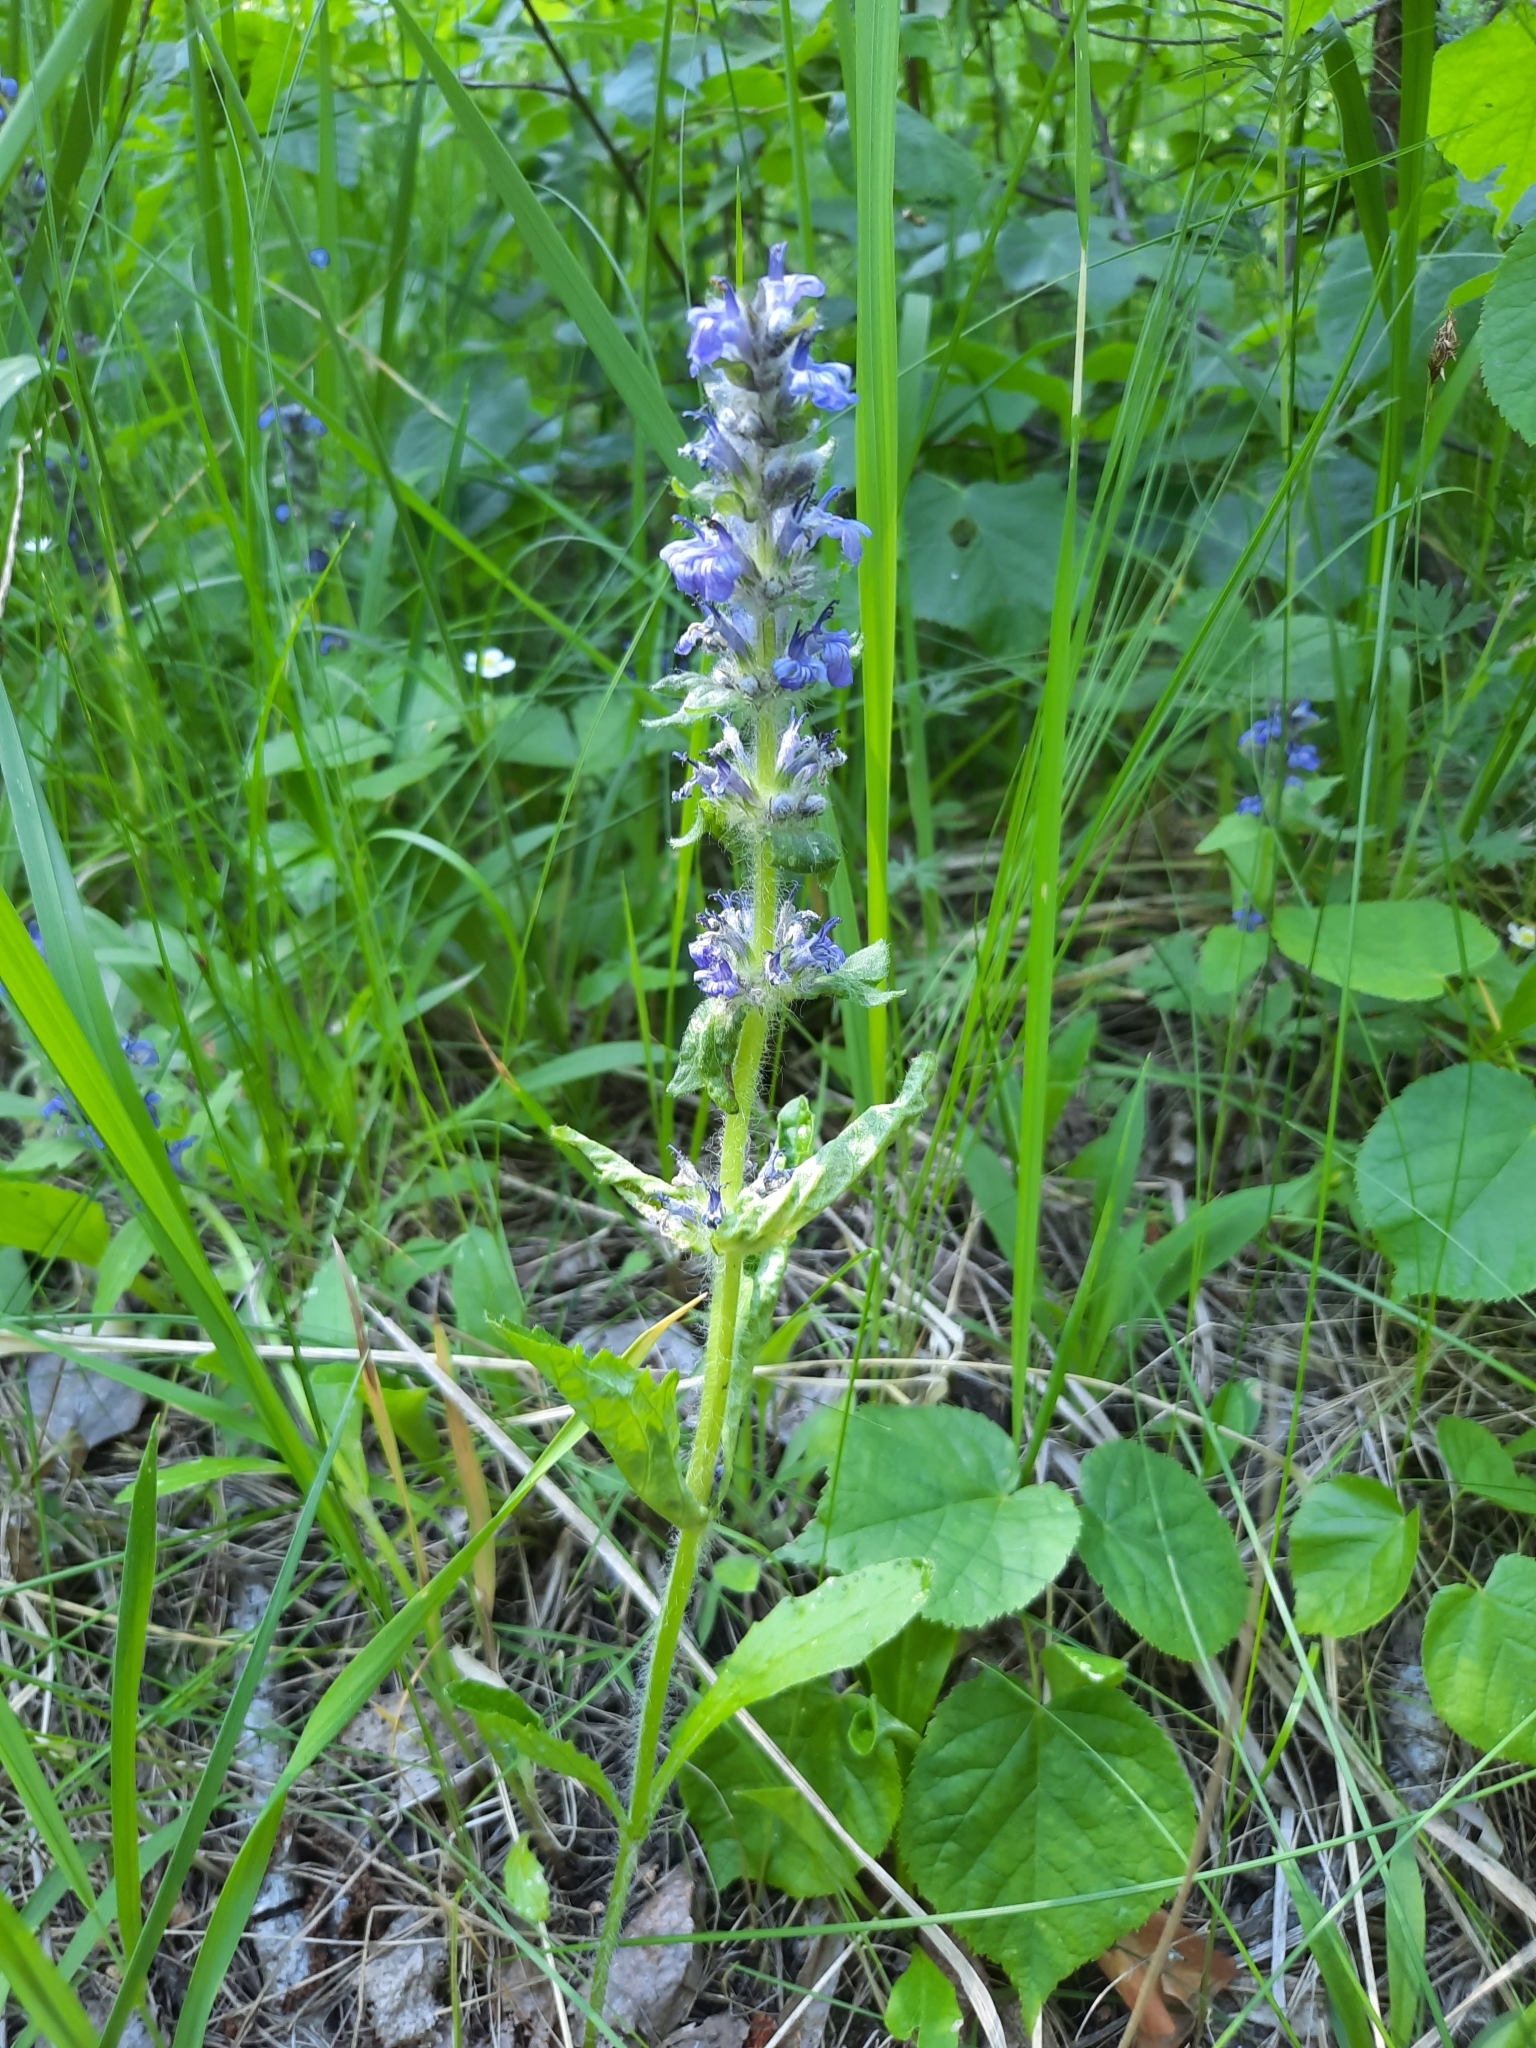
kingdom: Plantae
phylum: Tracheophyta
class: Magnoliopsida
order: Lamiales
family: Lamiaceae
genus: Ajuga
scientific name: Ajuga genevensis
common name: Blue bugle
